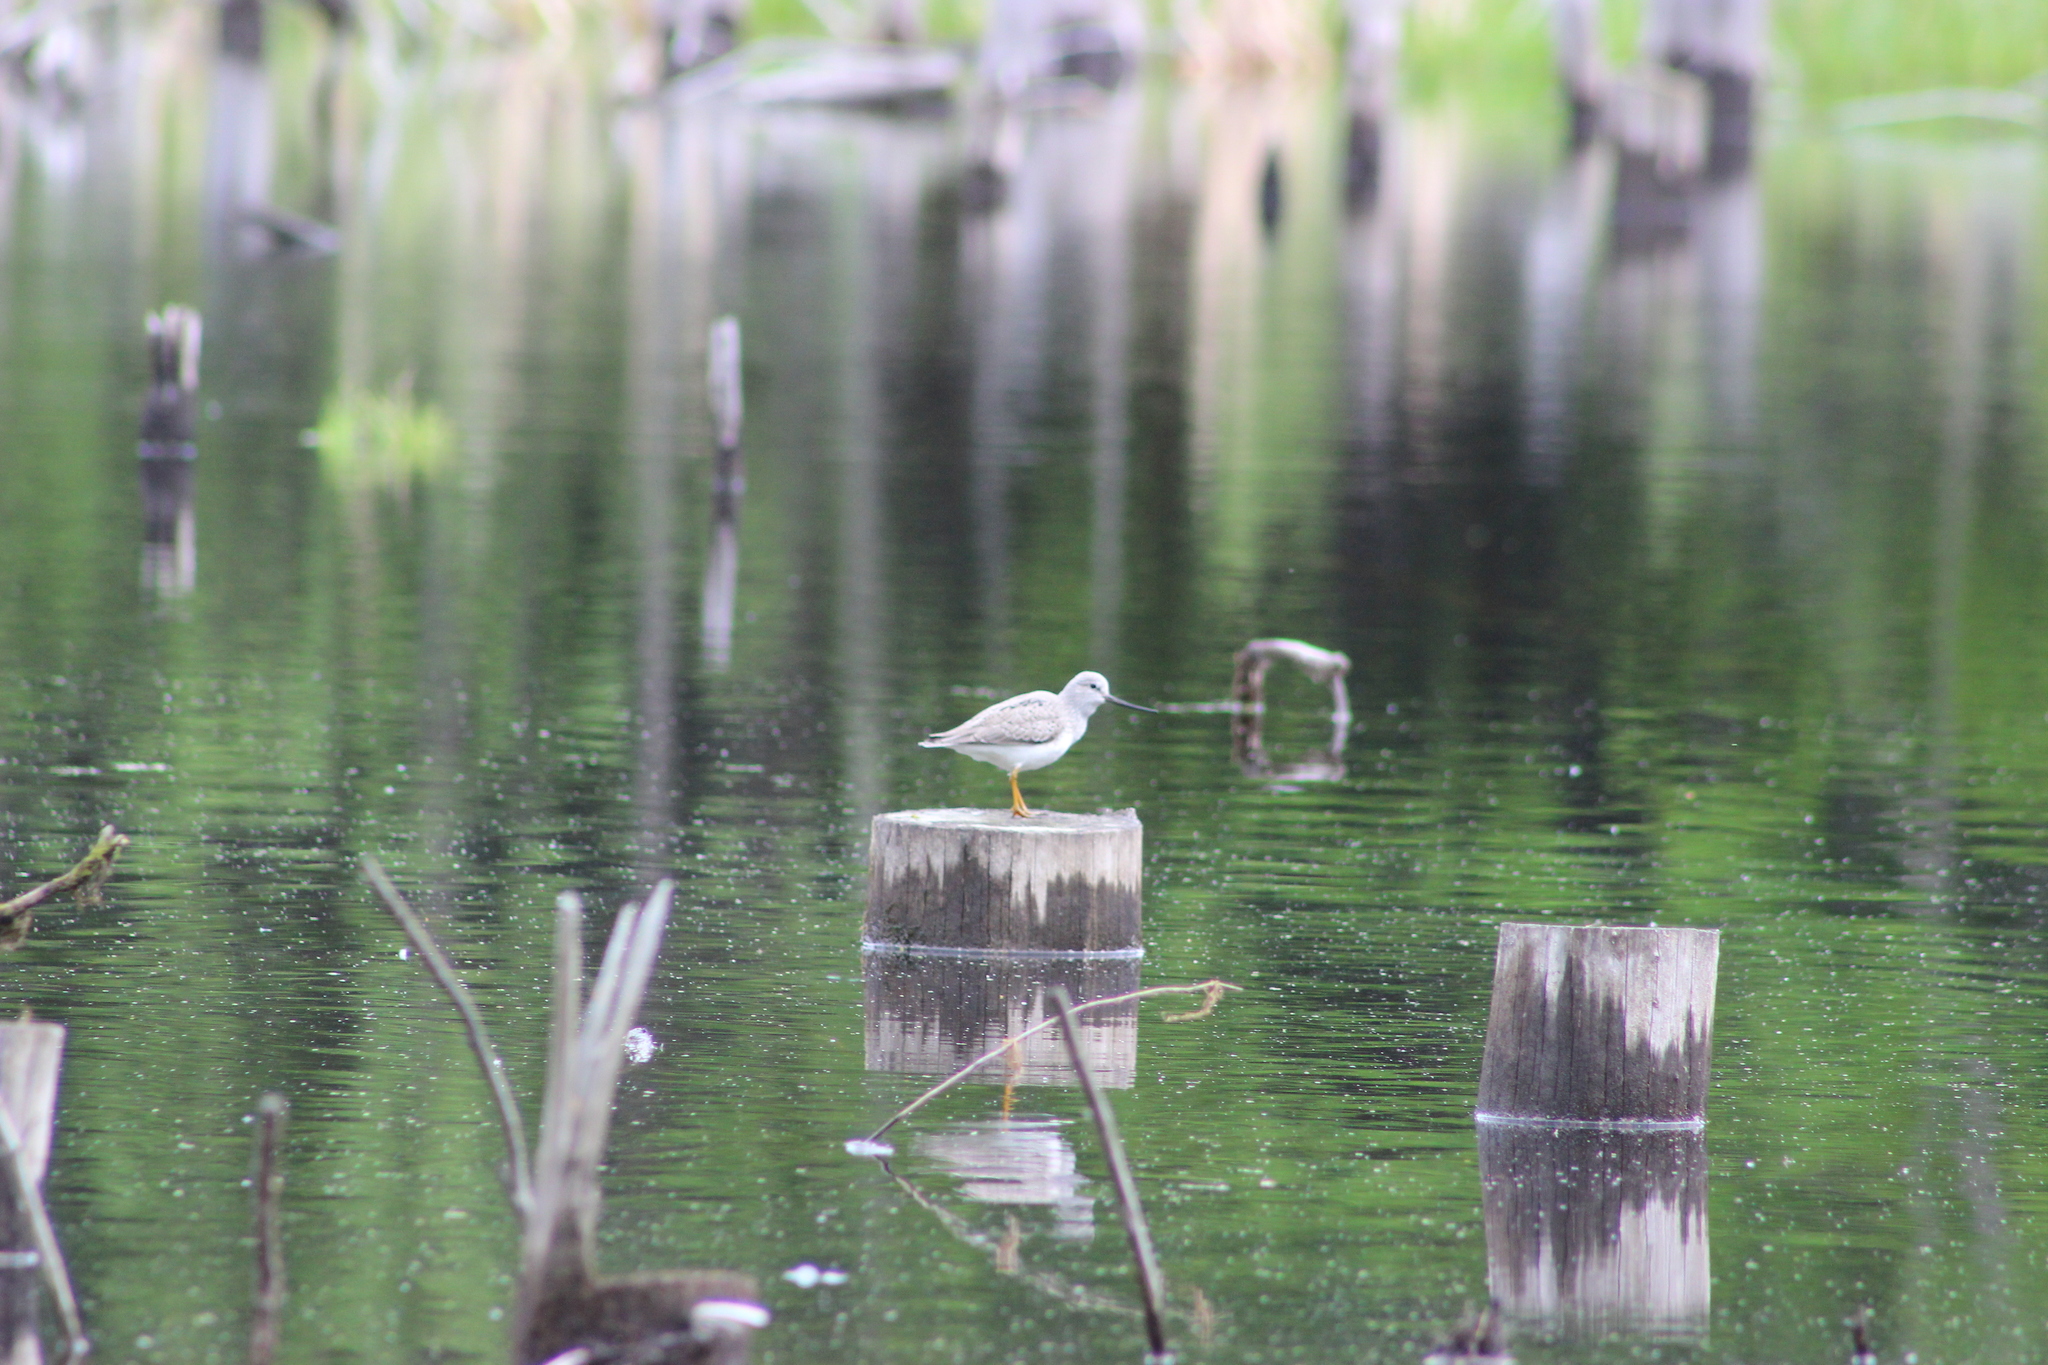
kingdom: Animalia
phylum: Chordata
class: Aves
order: Charadriiformes
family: Scolopacidae
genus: Xenus
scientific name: Xenus cinereus
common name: Terek sandpiper
